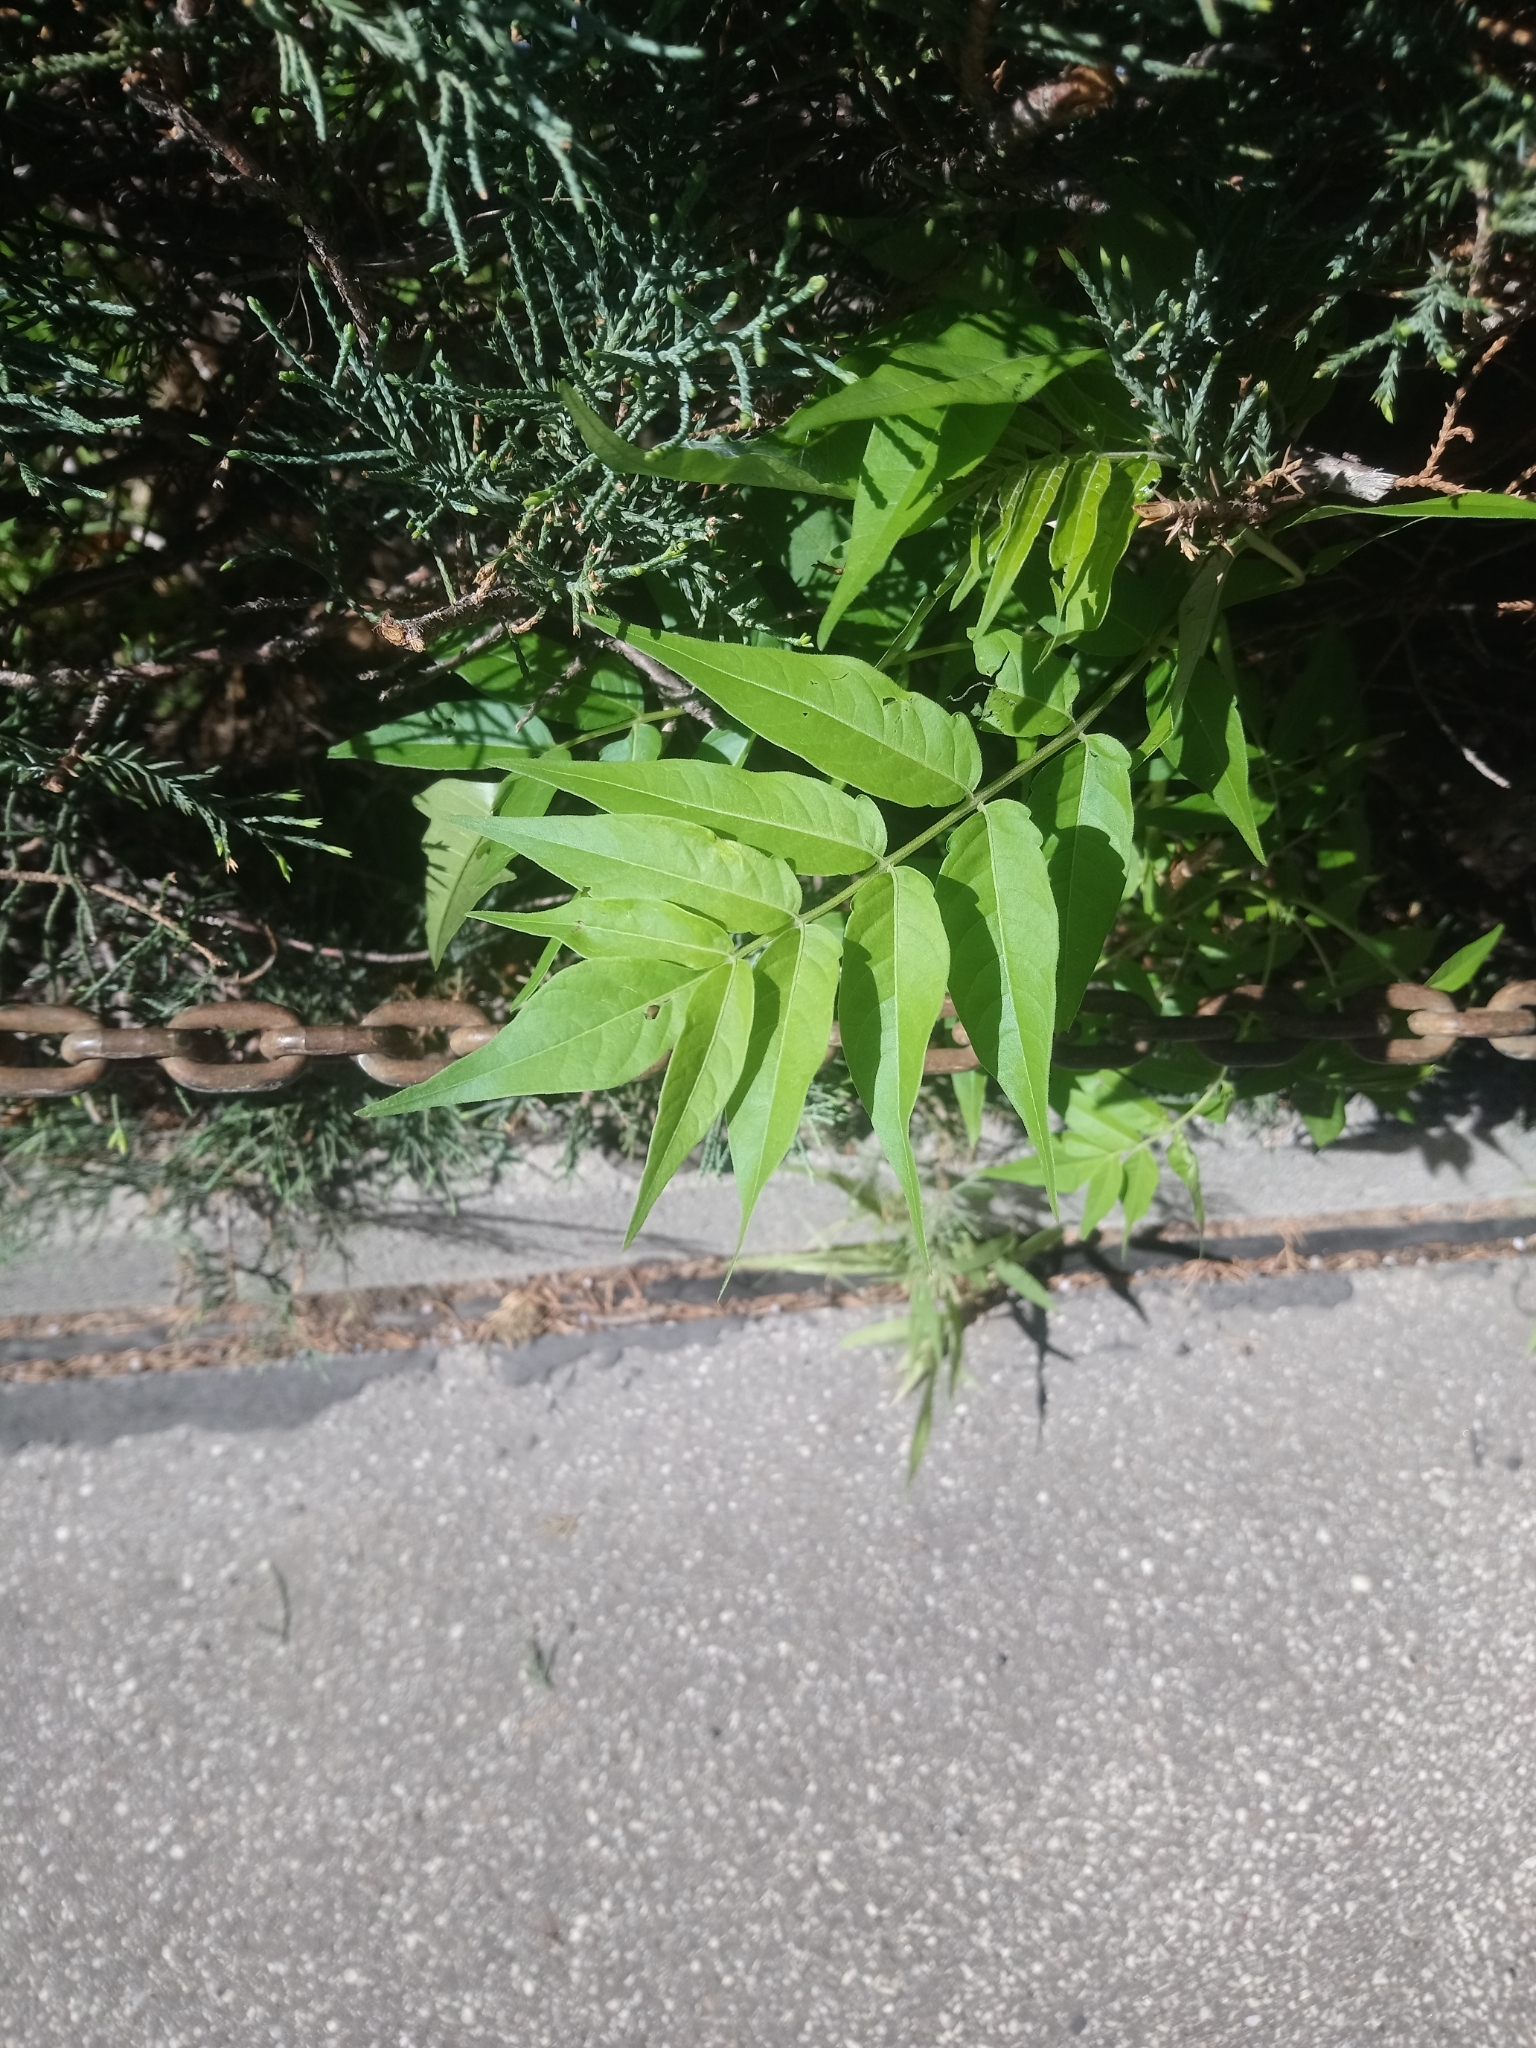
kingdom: Plantae
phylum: Tracheophyta
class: Magnoliopsida
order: Sapindales
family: Simaroubaceae
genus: Ailanthus
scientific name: Ailanthus altissima
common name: Tree-of-heaven
